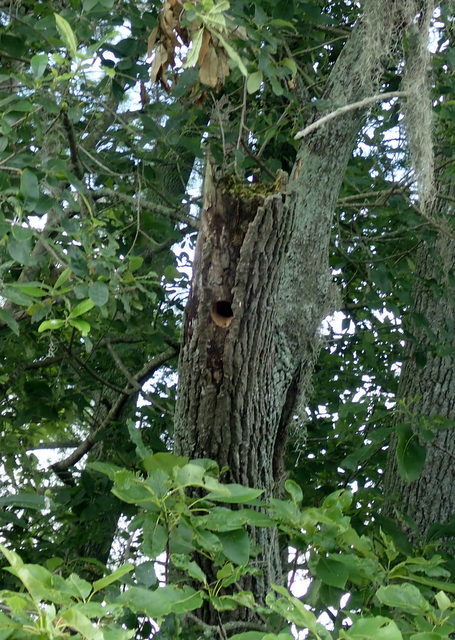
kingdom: Animalia
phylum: Chordata
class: Aves
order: Piciformes
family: Picidae
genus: Melanerpes
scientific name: Melanerpes carolinus
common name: Red-bellied woodpecker
